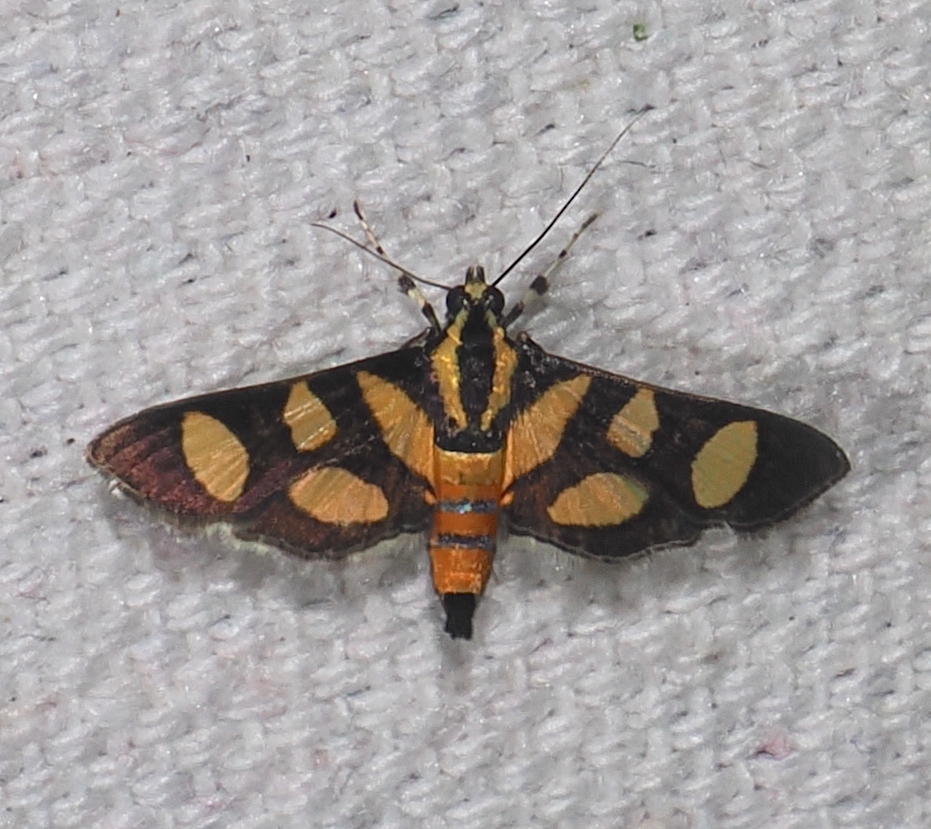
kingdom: Animalia
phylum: Arthropoda
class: Insecta
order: Lepidoptera
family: Crambidae
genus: Syngamia
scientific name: Syngamia florella
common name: Orange-spotted flower moth
